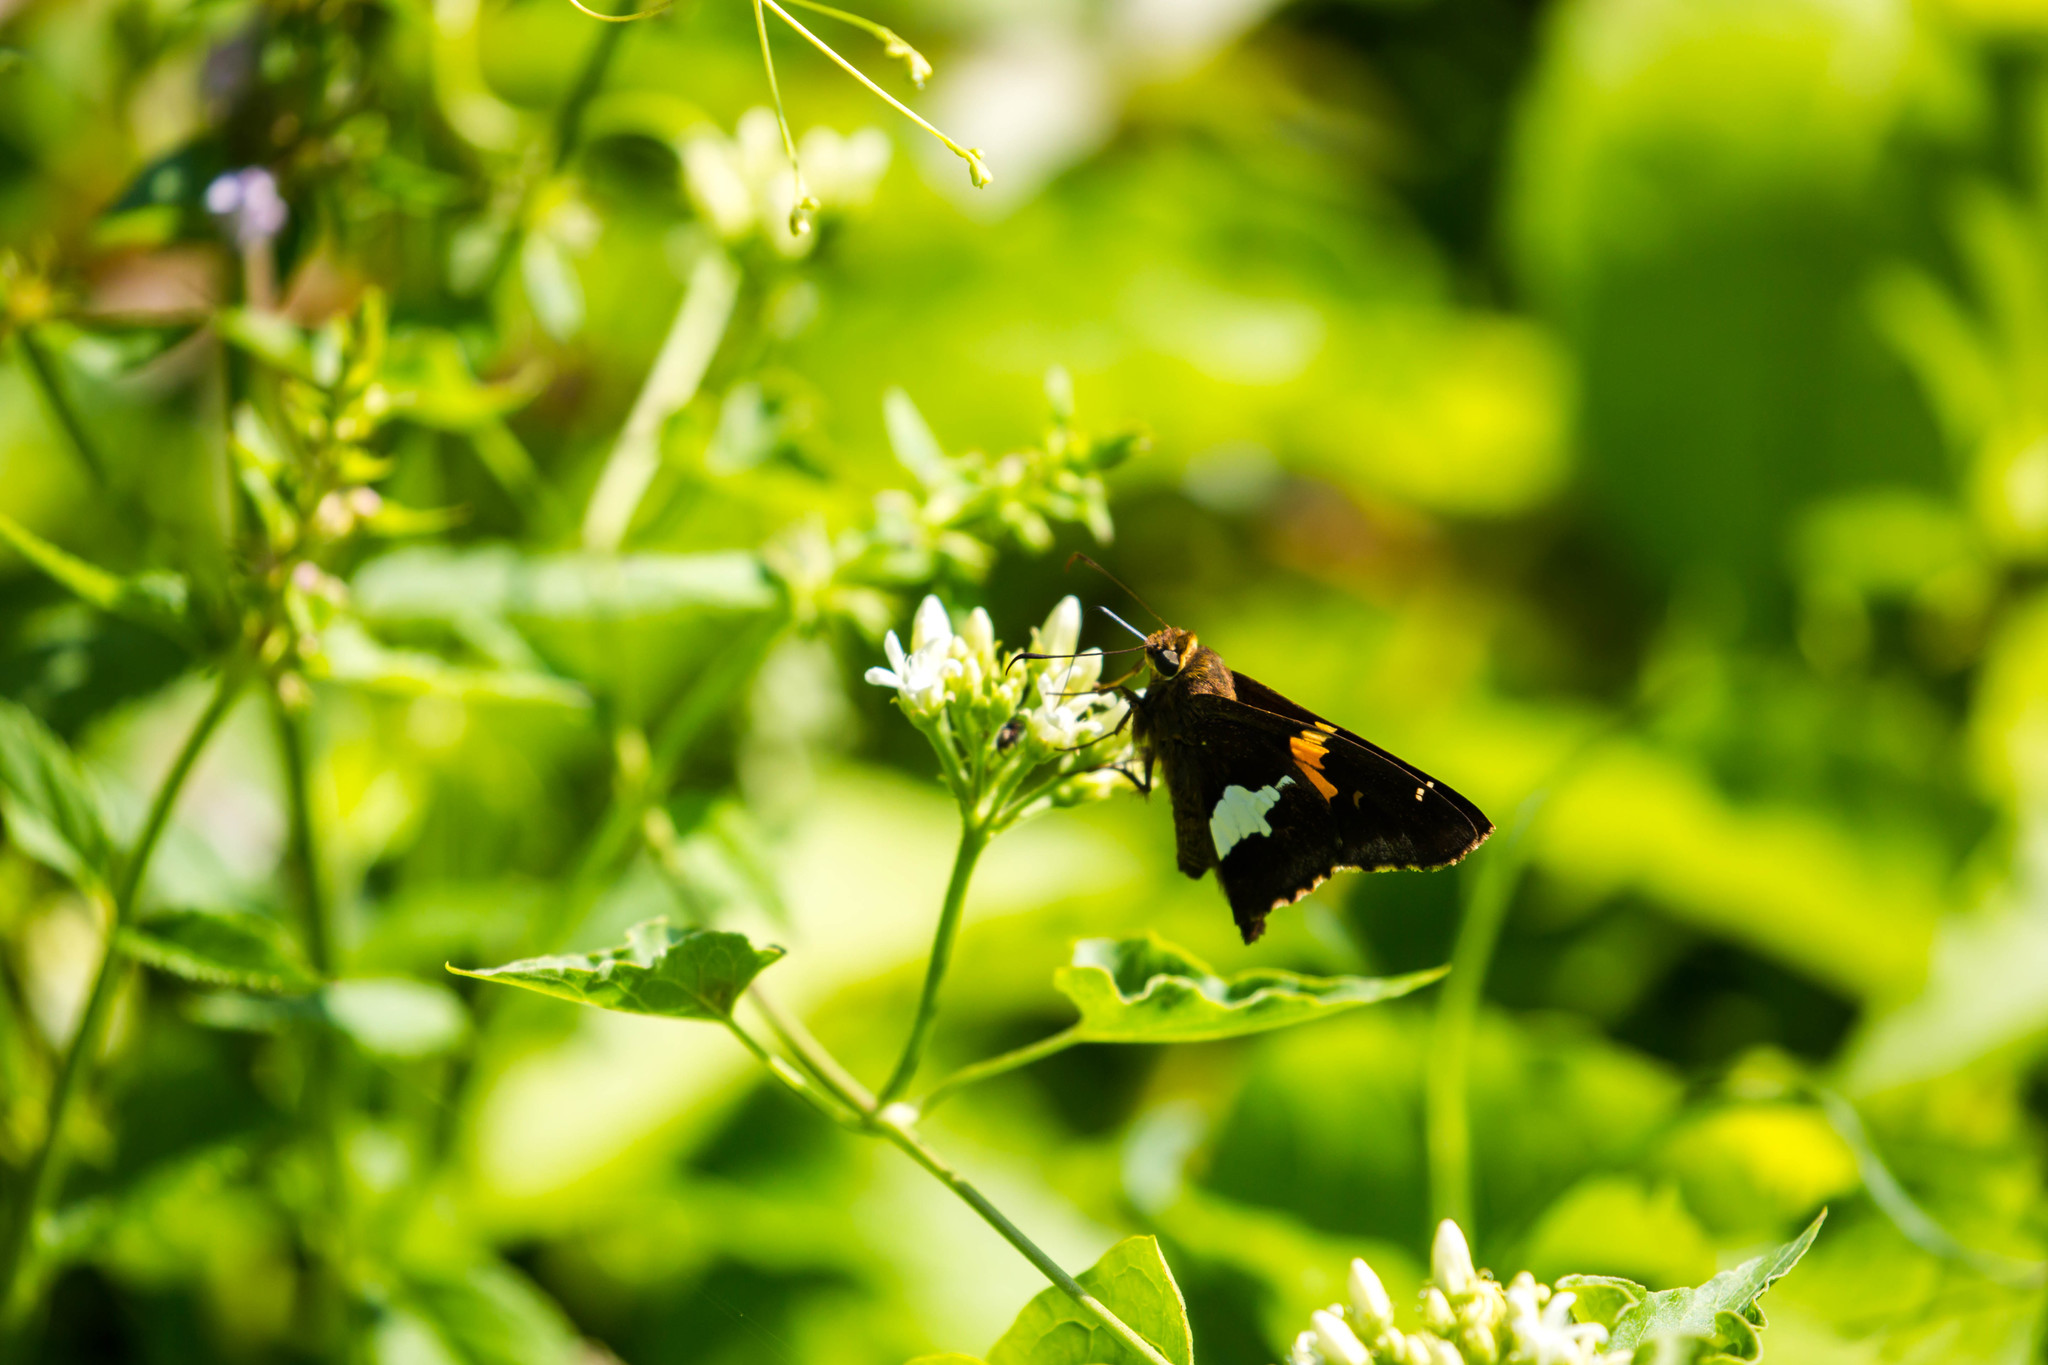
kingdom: Animalia
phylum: Arthropoda
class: Insecta
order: Lepidoptera
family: Hesperiidae
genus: Epargyreus
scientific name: Epargyreus clarus
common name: Silver-spotted skipper
